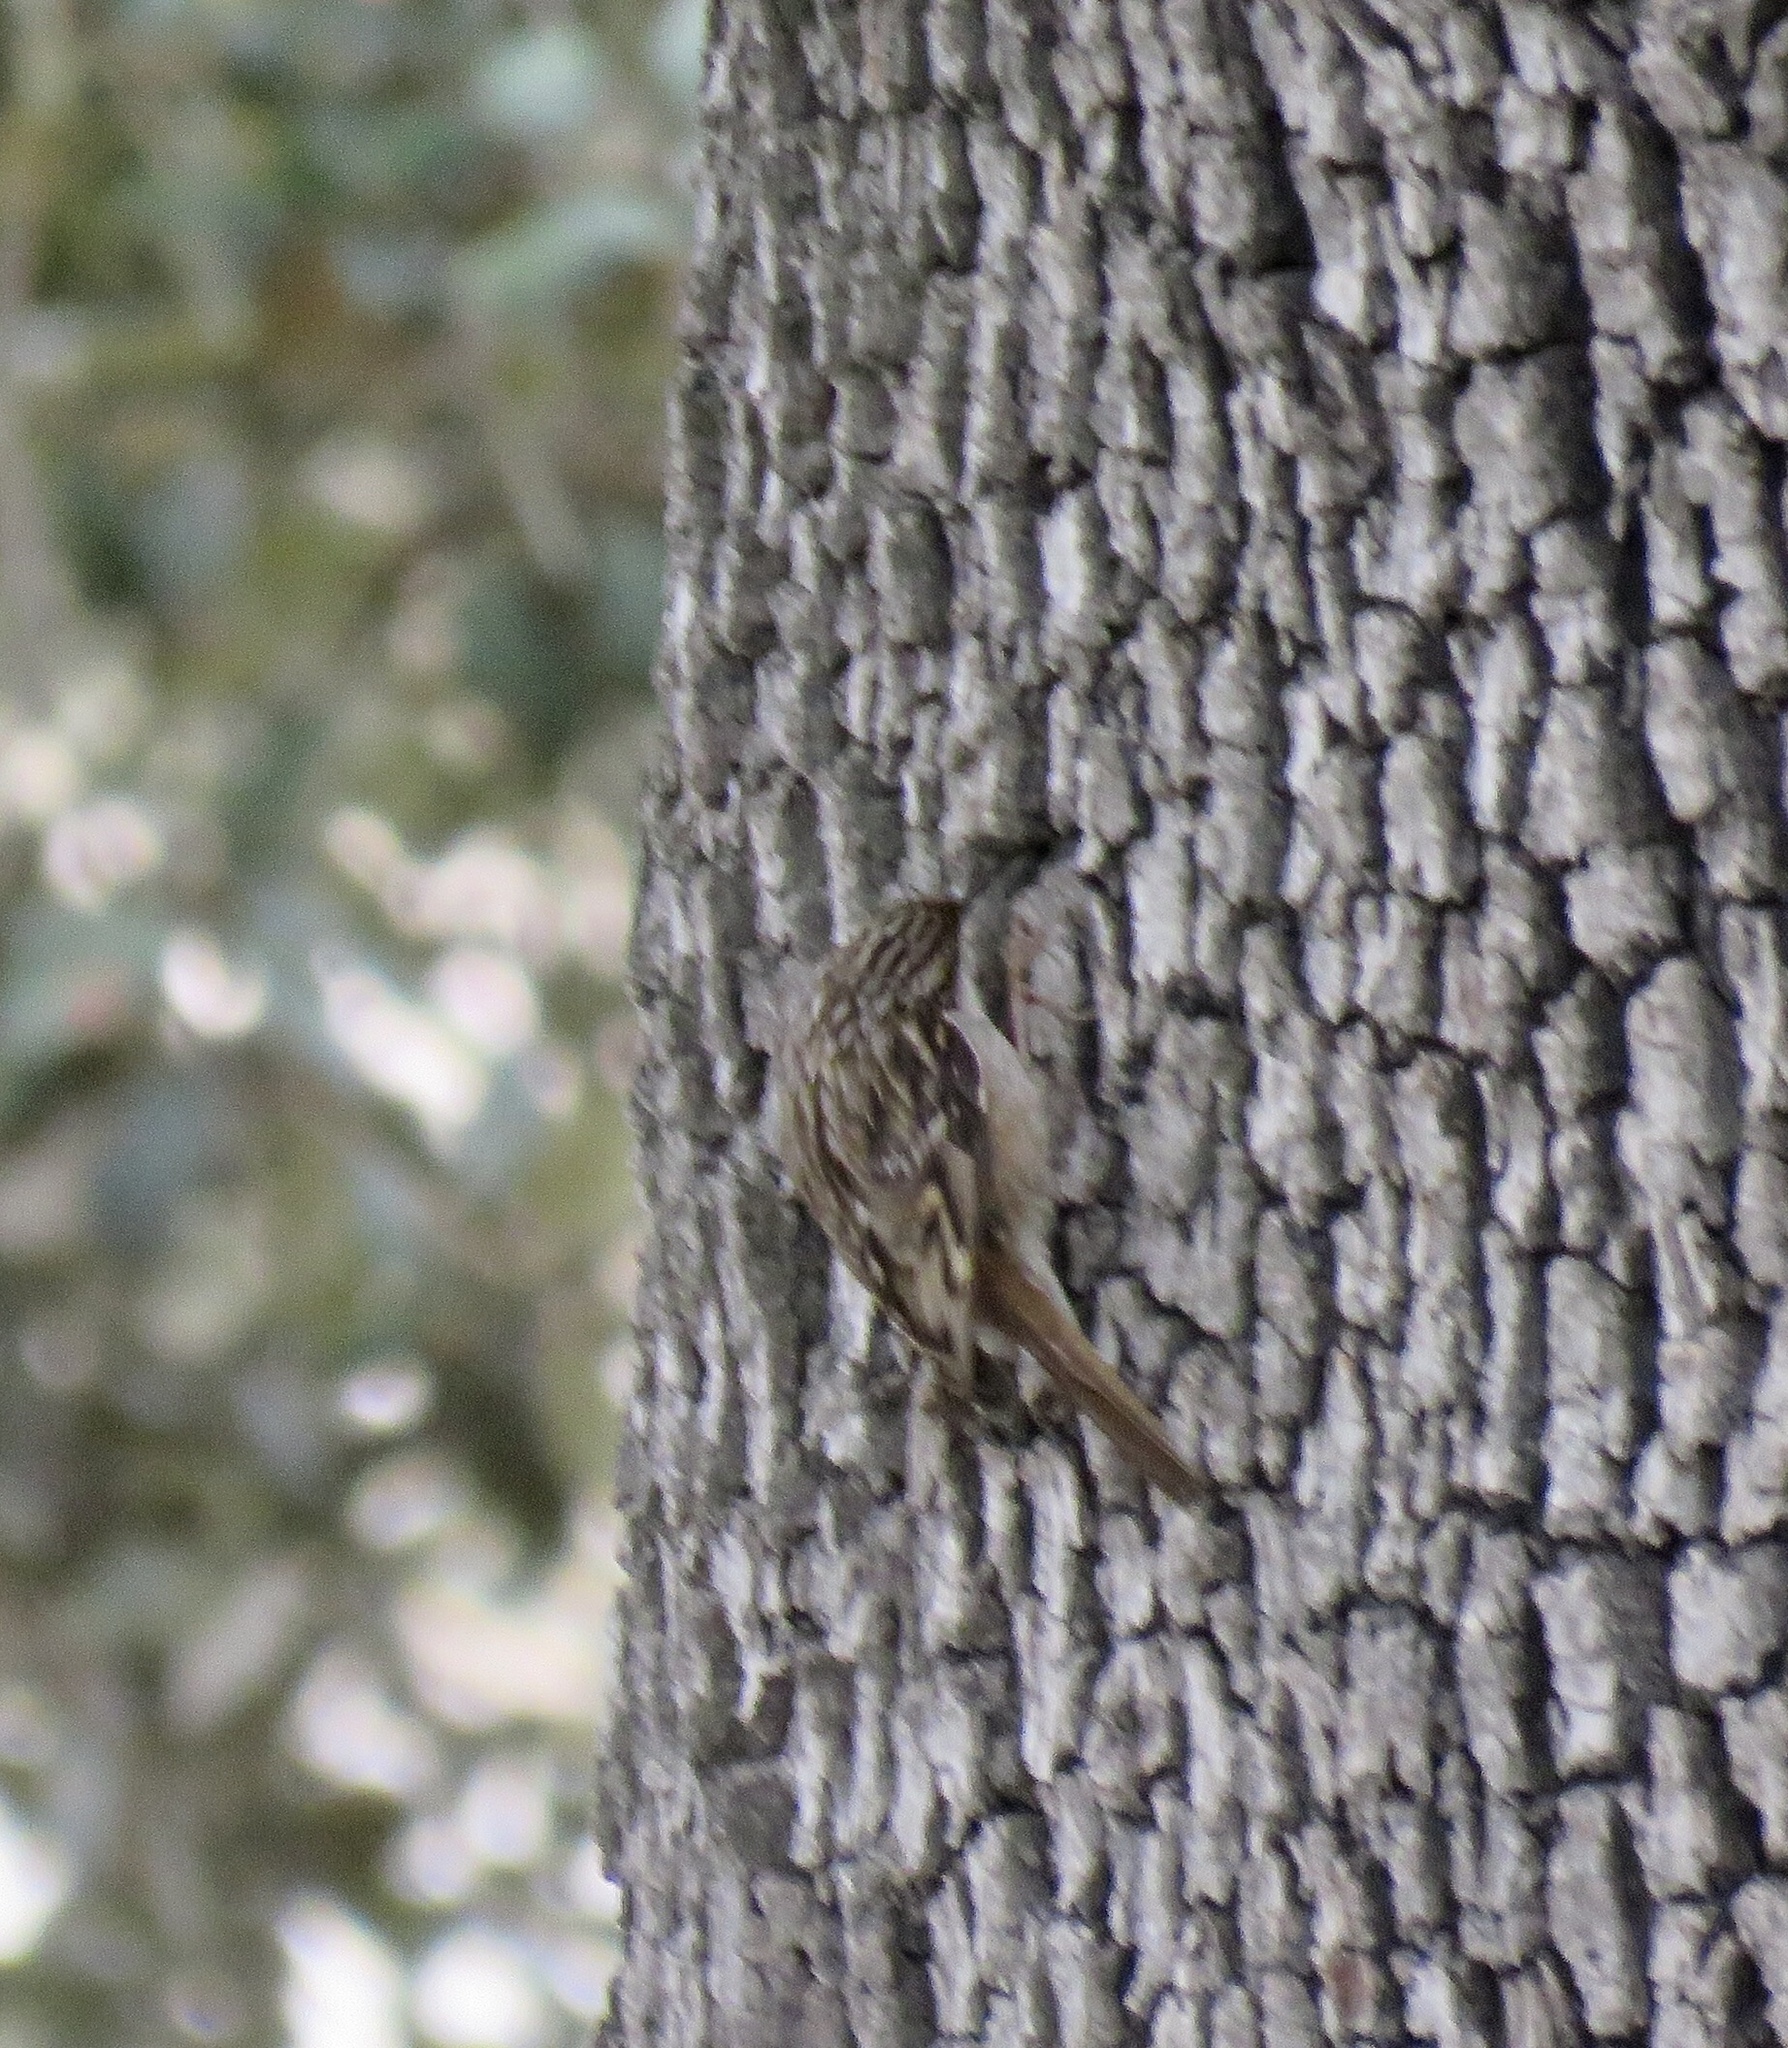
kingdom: Animalia
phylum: Chordata
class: Aves
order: Passeriformes
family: Certhiidae
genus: Certhia
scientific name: Certhia brachydactyla
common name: Short-toed treecreeper
